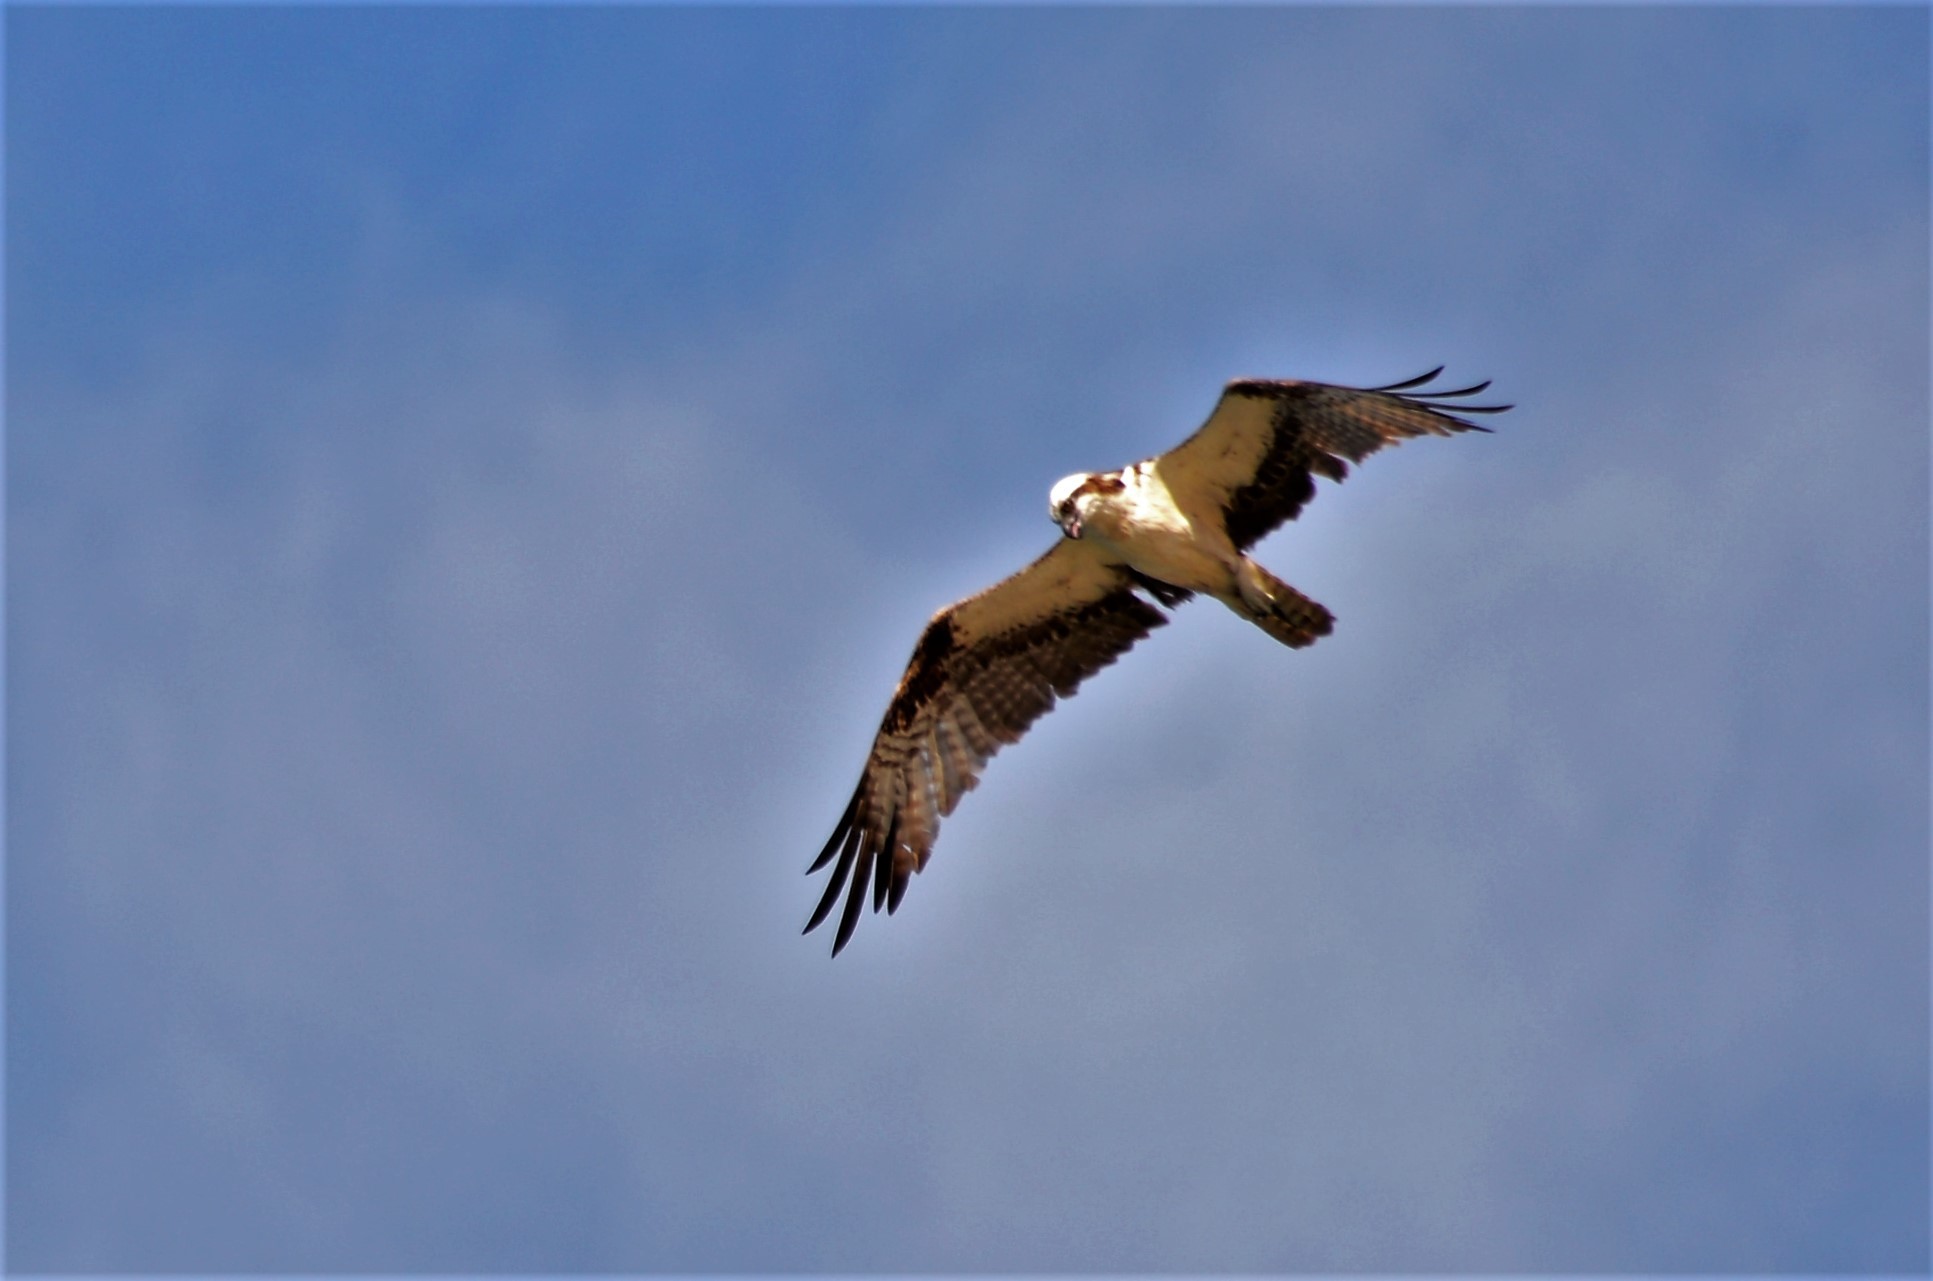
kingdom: Animalia
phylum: Chordata
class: Aves
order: Accipitriformes
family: Pandionidae
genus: Pandion
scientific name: Pandion haliaetus
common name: Osprey
